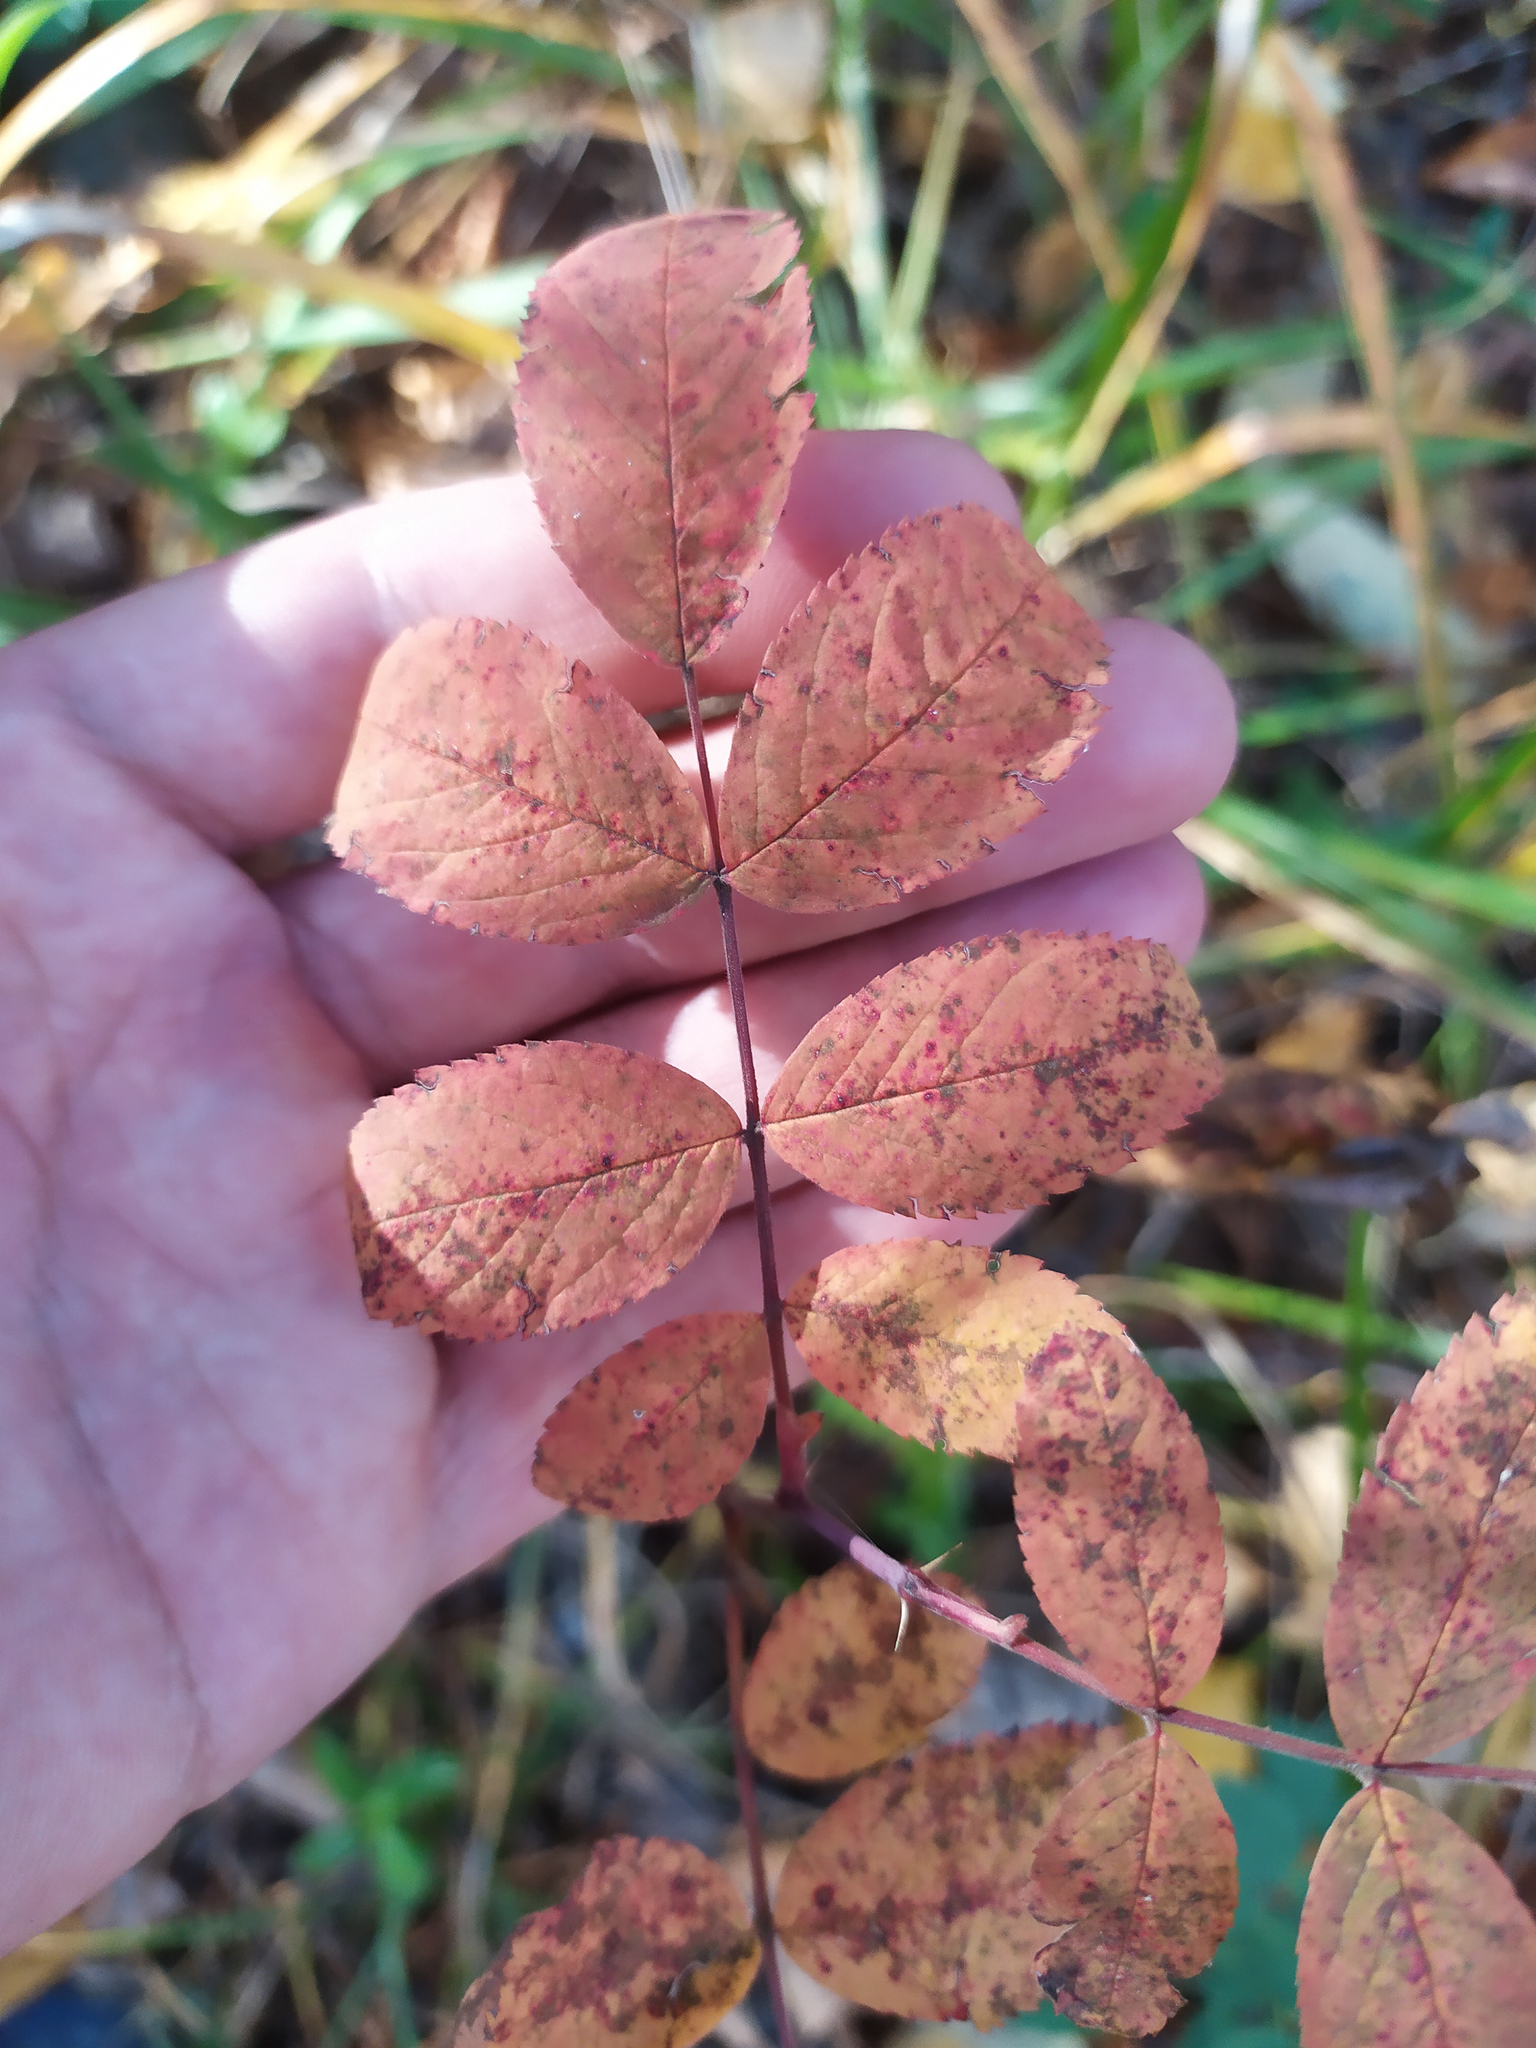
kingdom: Plantae
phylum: Tracheophyta
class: Magnoliopsida
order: Rosales
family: Rosaceae
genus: Rosa
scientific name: Rosa
